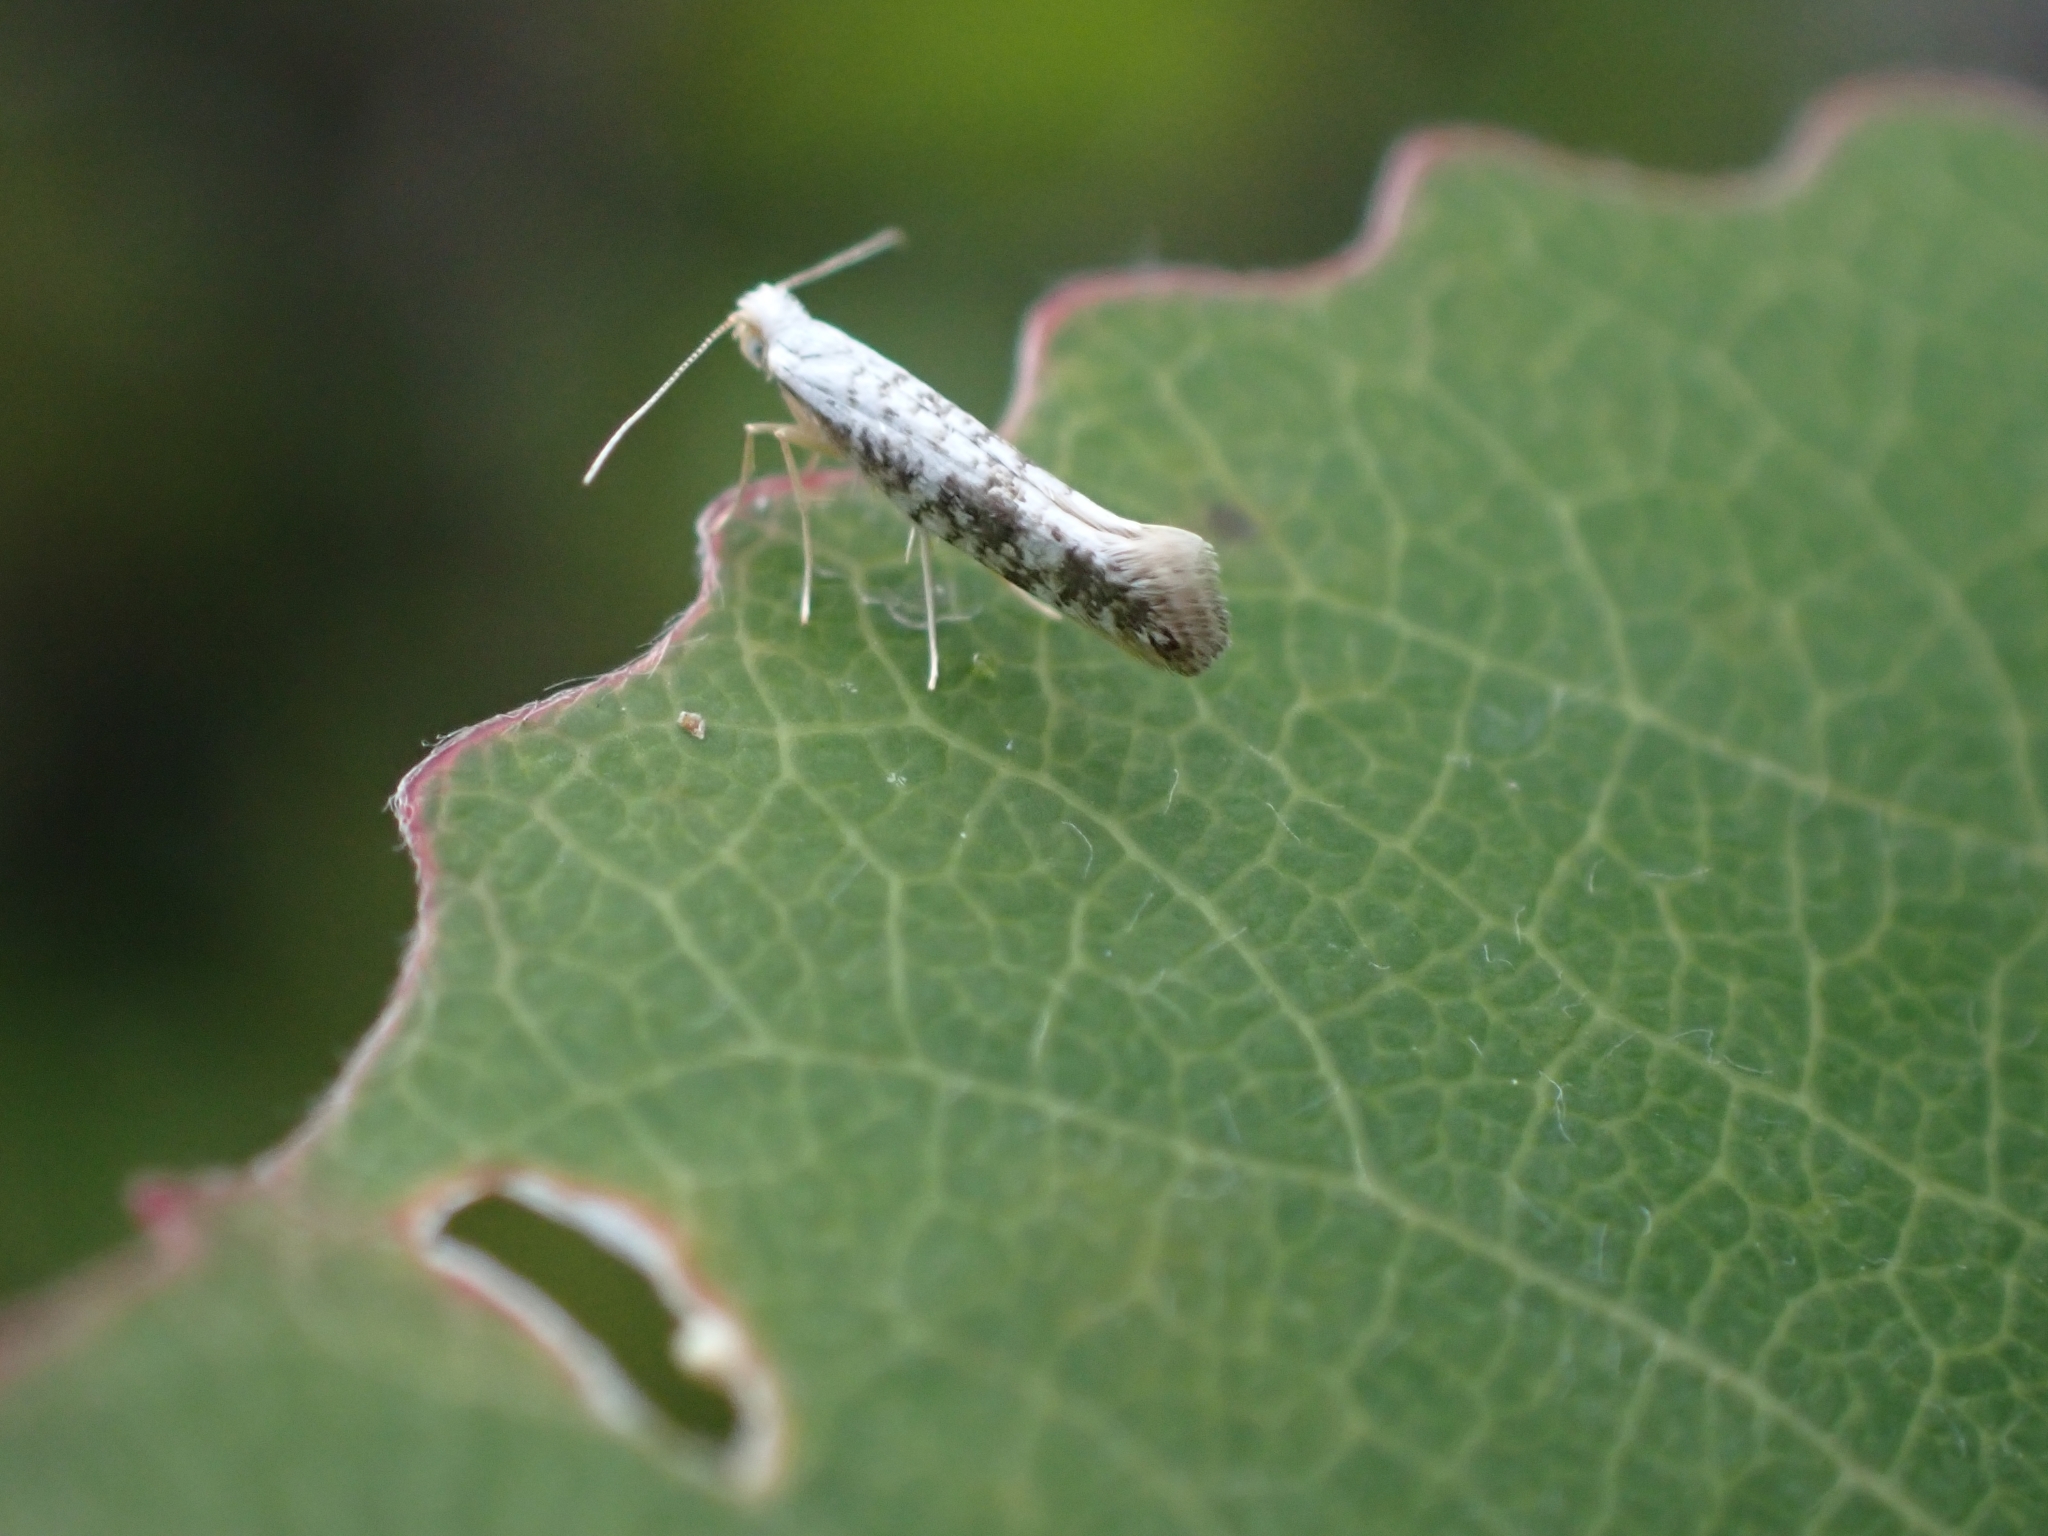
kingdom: Animalia
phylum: Arthropoda
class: Insecta
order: Lepidoptera
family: Argyresthiidae
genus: Argyresthia
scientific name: Argyresthia retinella
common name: Netted argent
